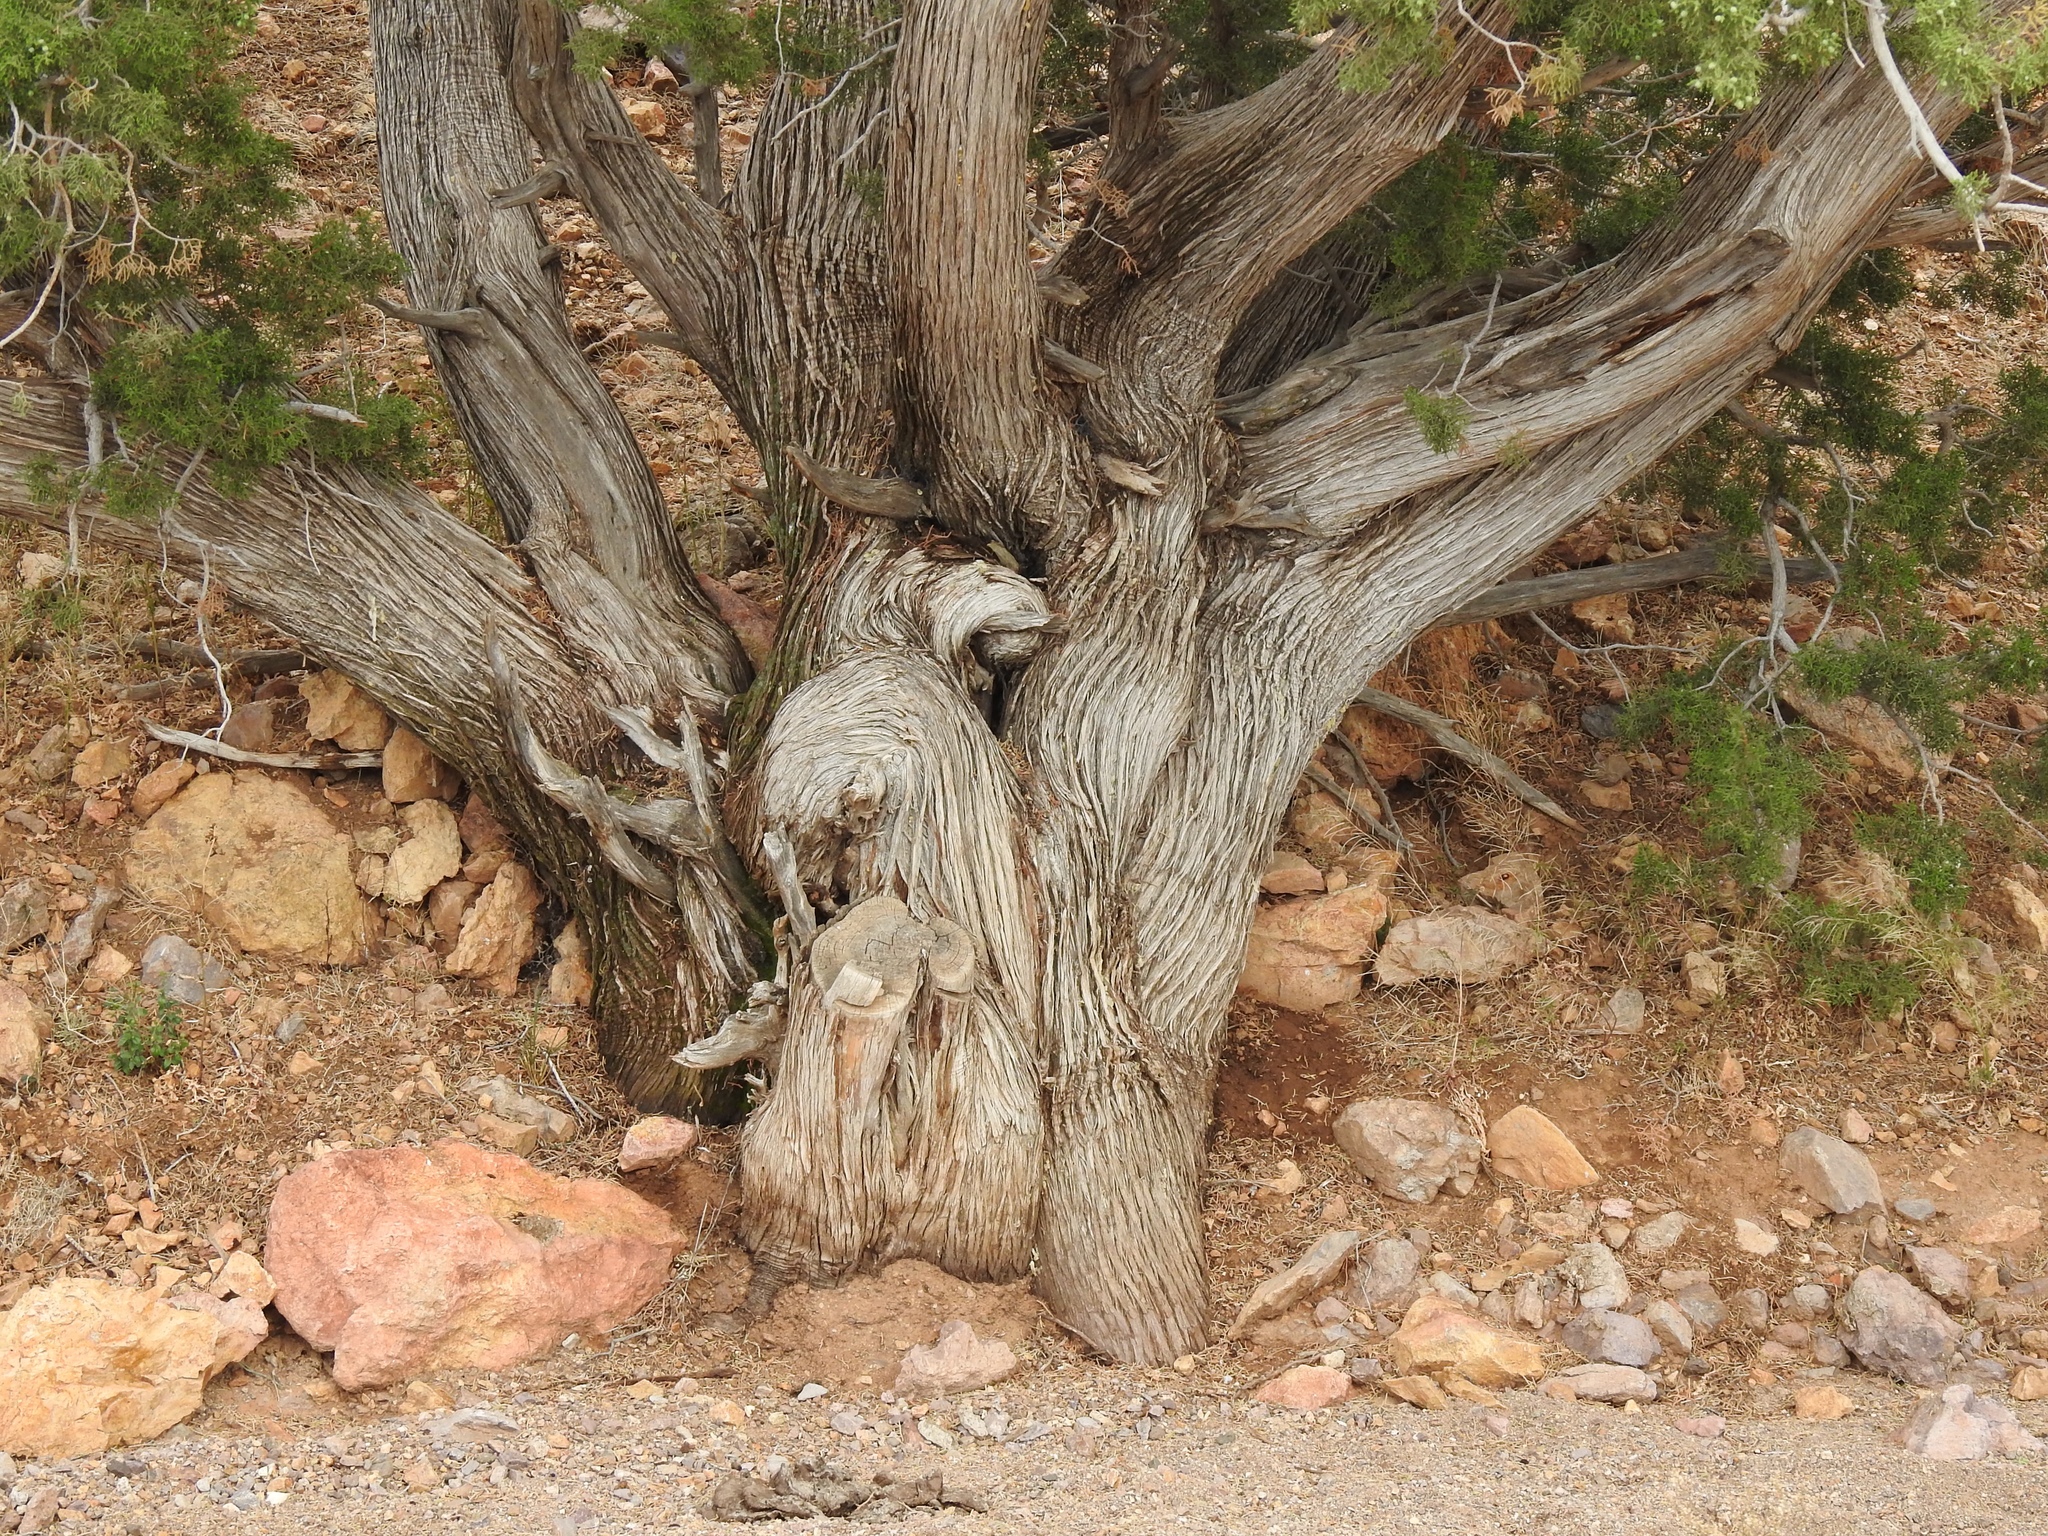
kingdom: Plantae
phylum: Tracheophyta
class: Pinopsida
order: Pinales
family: Cupressaceae
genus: Juniperus
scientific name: Juniperus monosperma
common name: One-seed juniper
